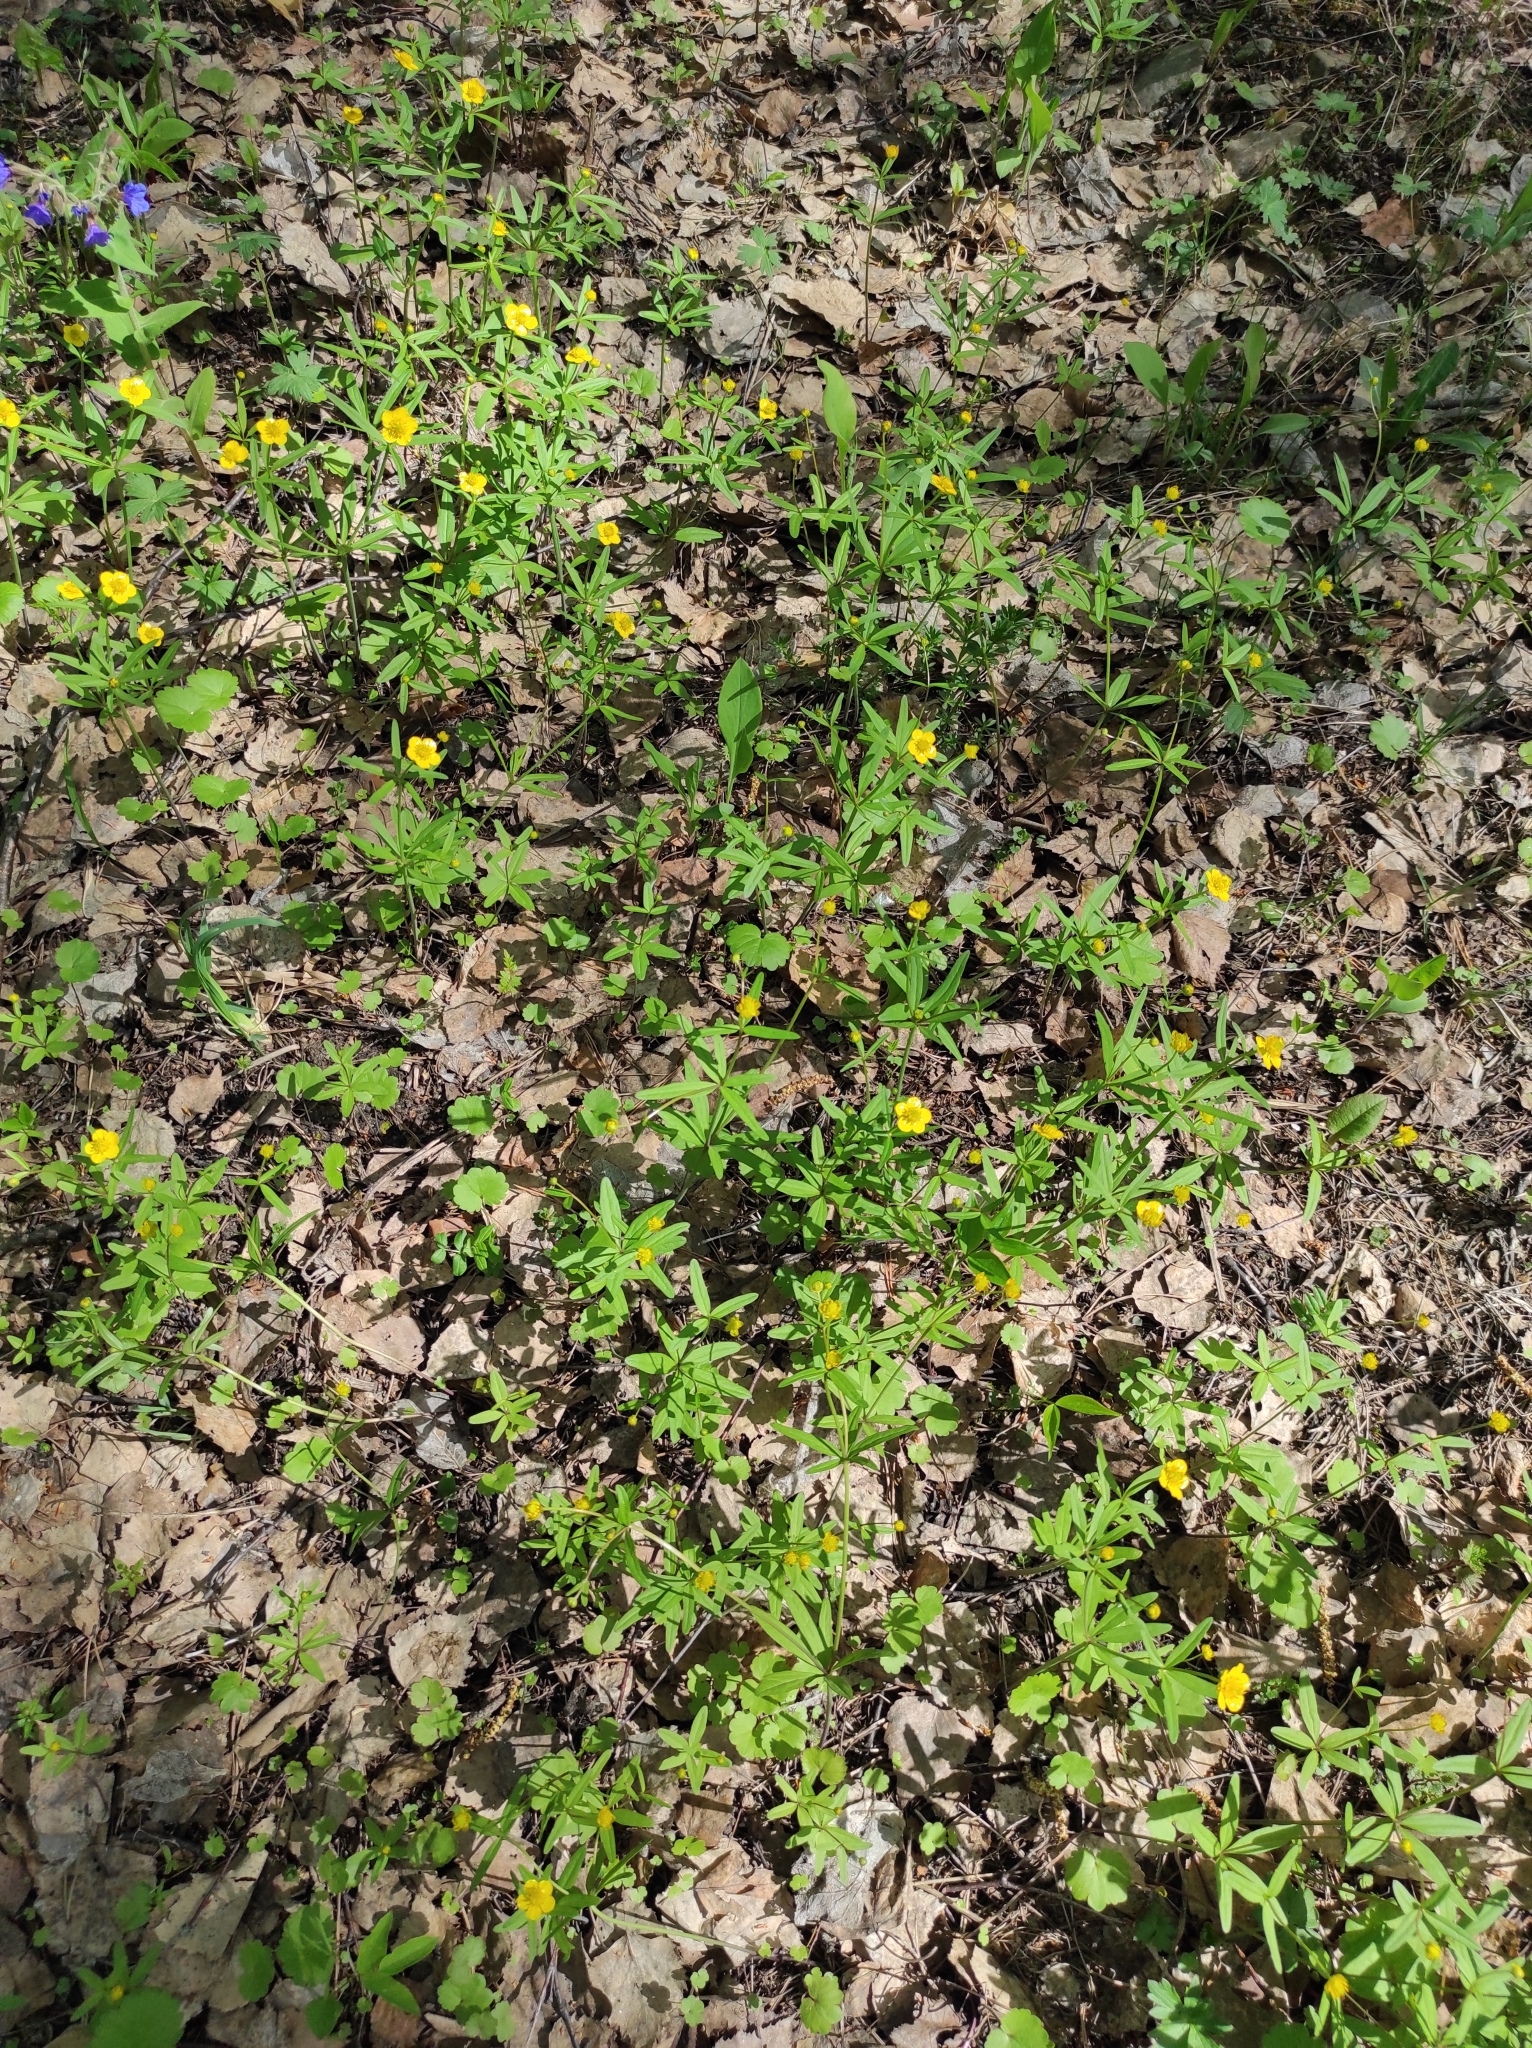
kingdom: Plantae
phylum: Tracheophyta
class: Magnoliopsida
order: Ranunculales
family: Ranunculaceae
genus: Ranunculus
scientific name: Ranunculus monophyllus
